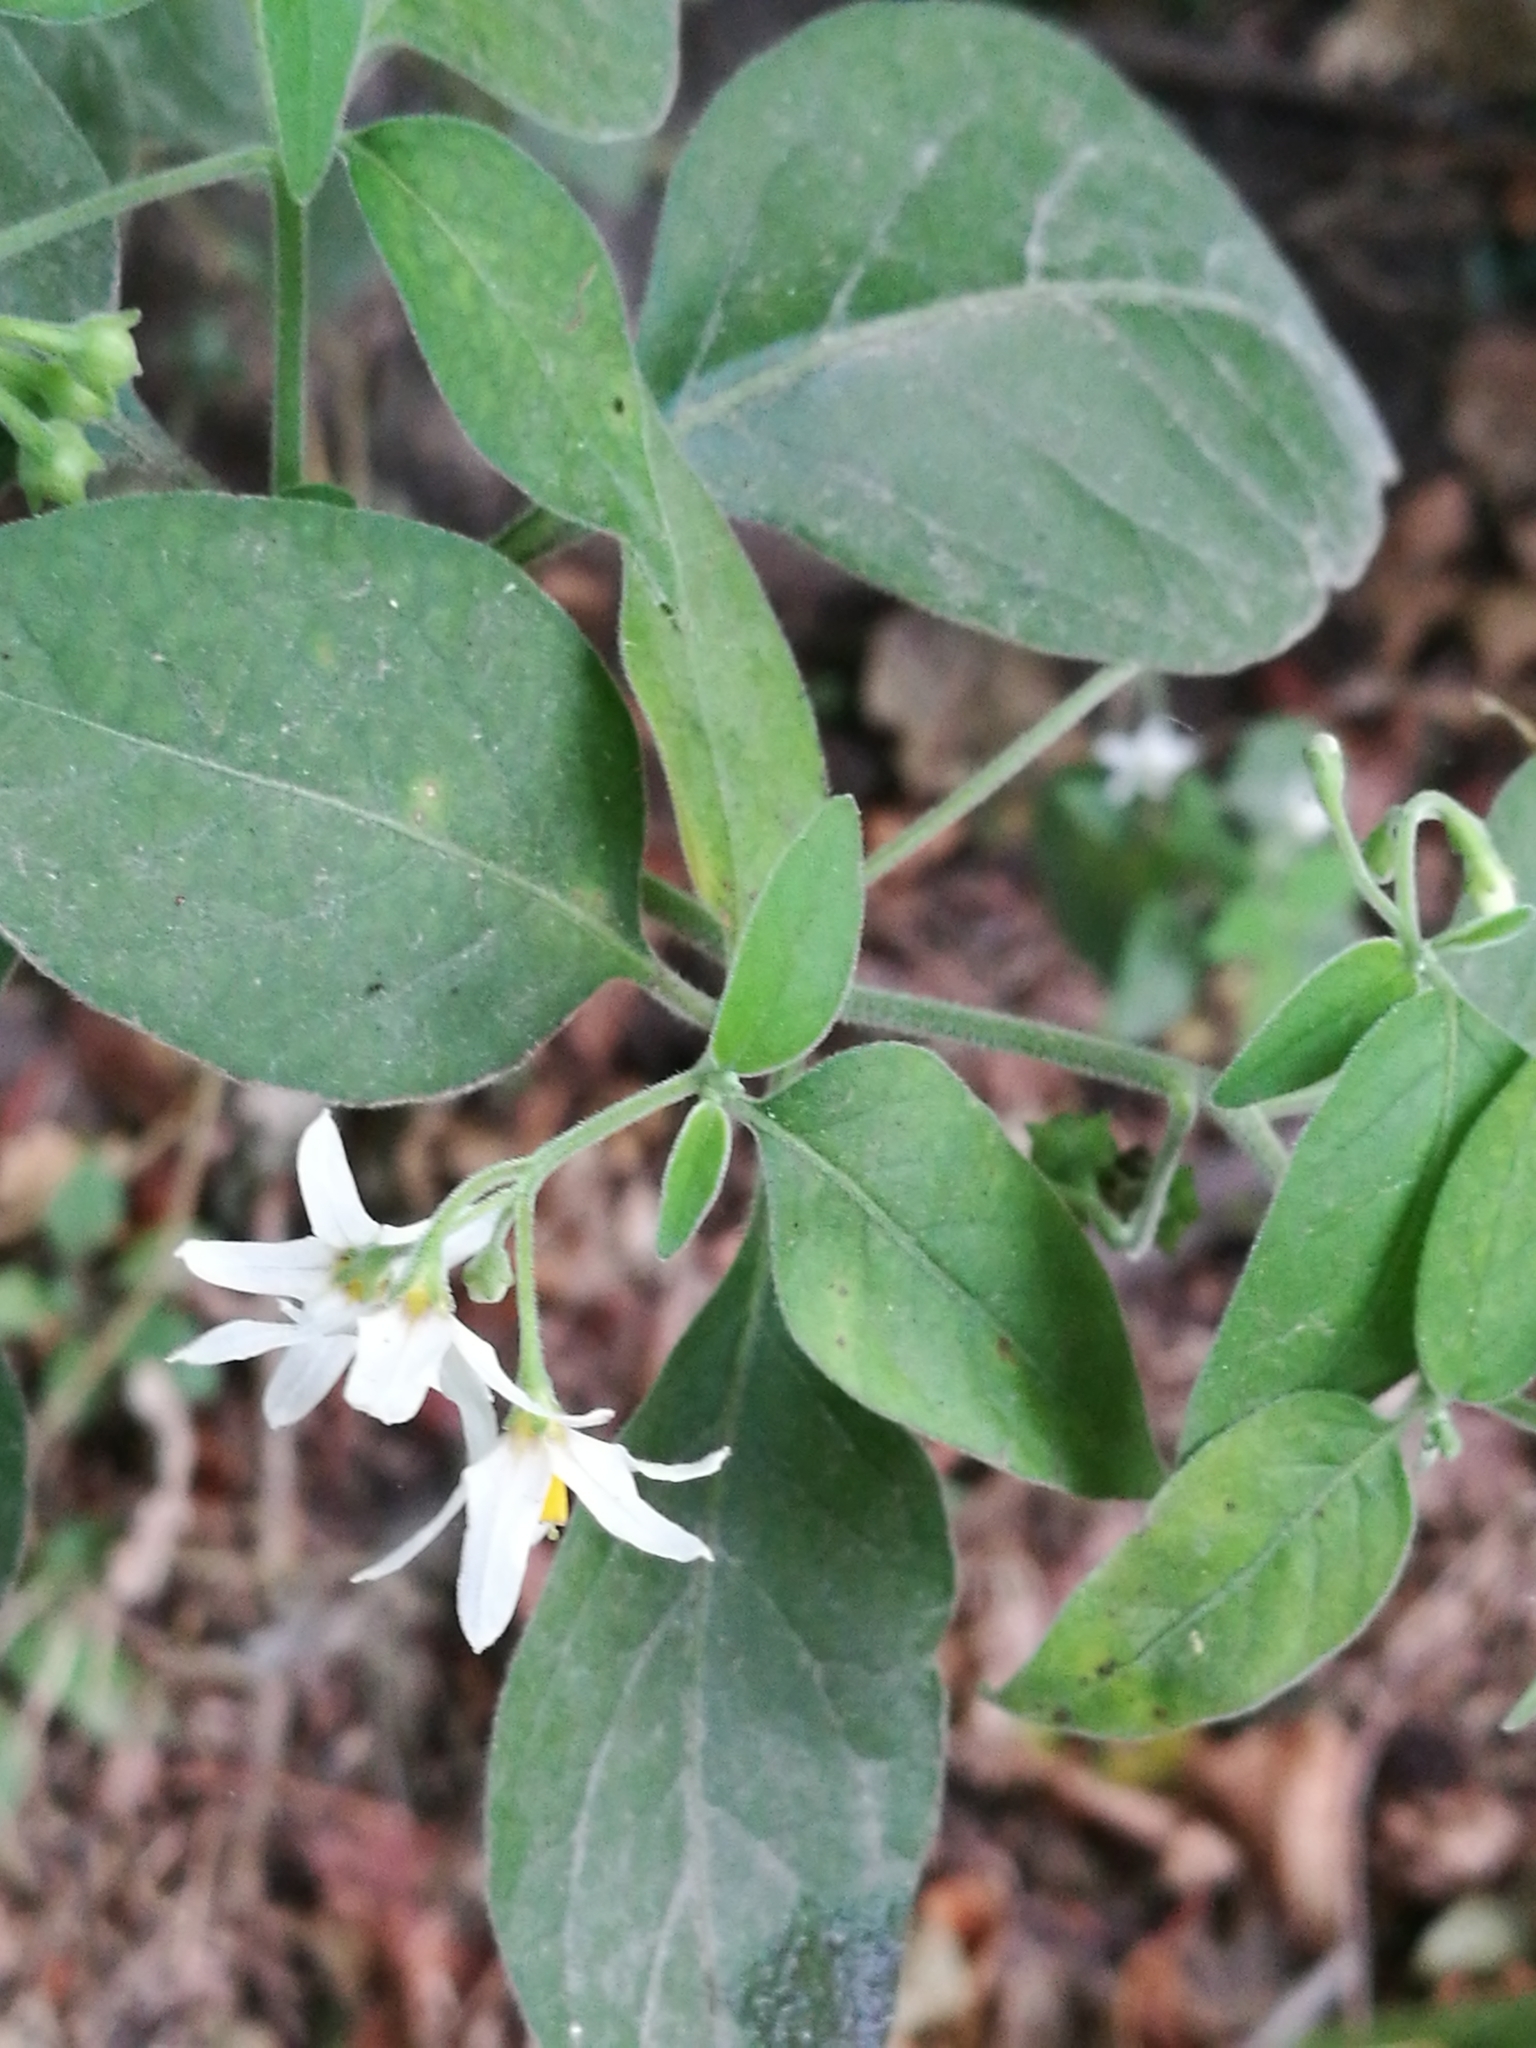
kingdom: Plantae
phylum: Tracheophyta
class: Magnoliopsida
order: Solanales
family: Solanaceae
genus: Solanum
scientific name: Solanum chenopodioides
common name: Tall nightshade
